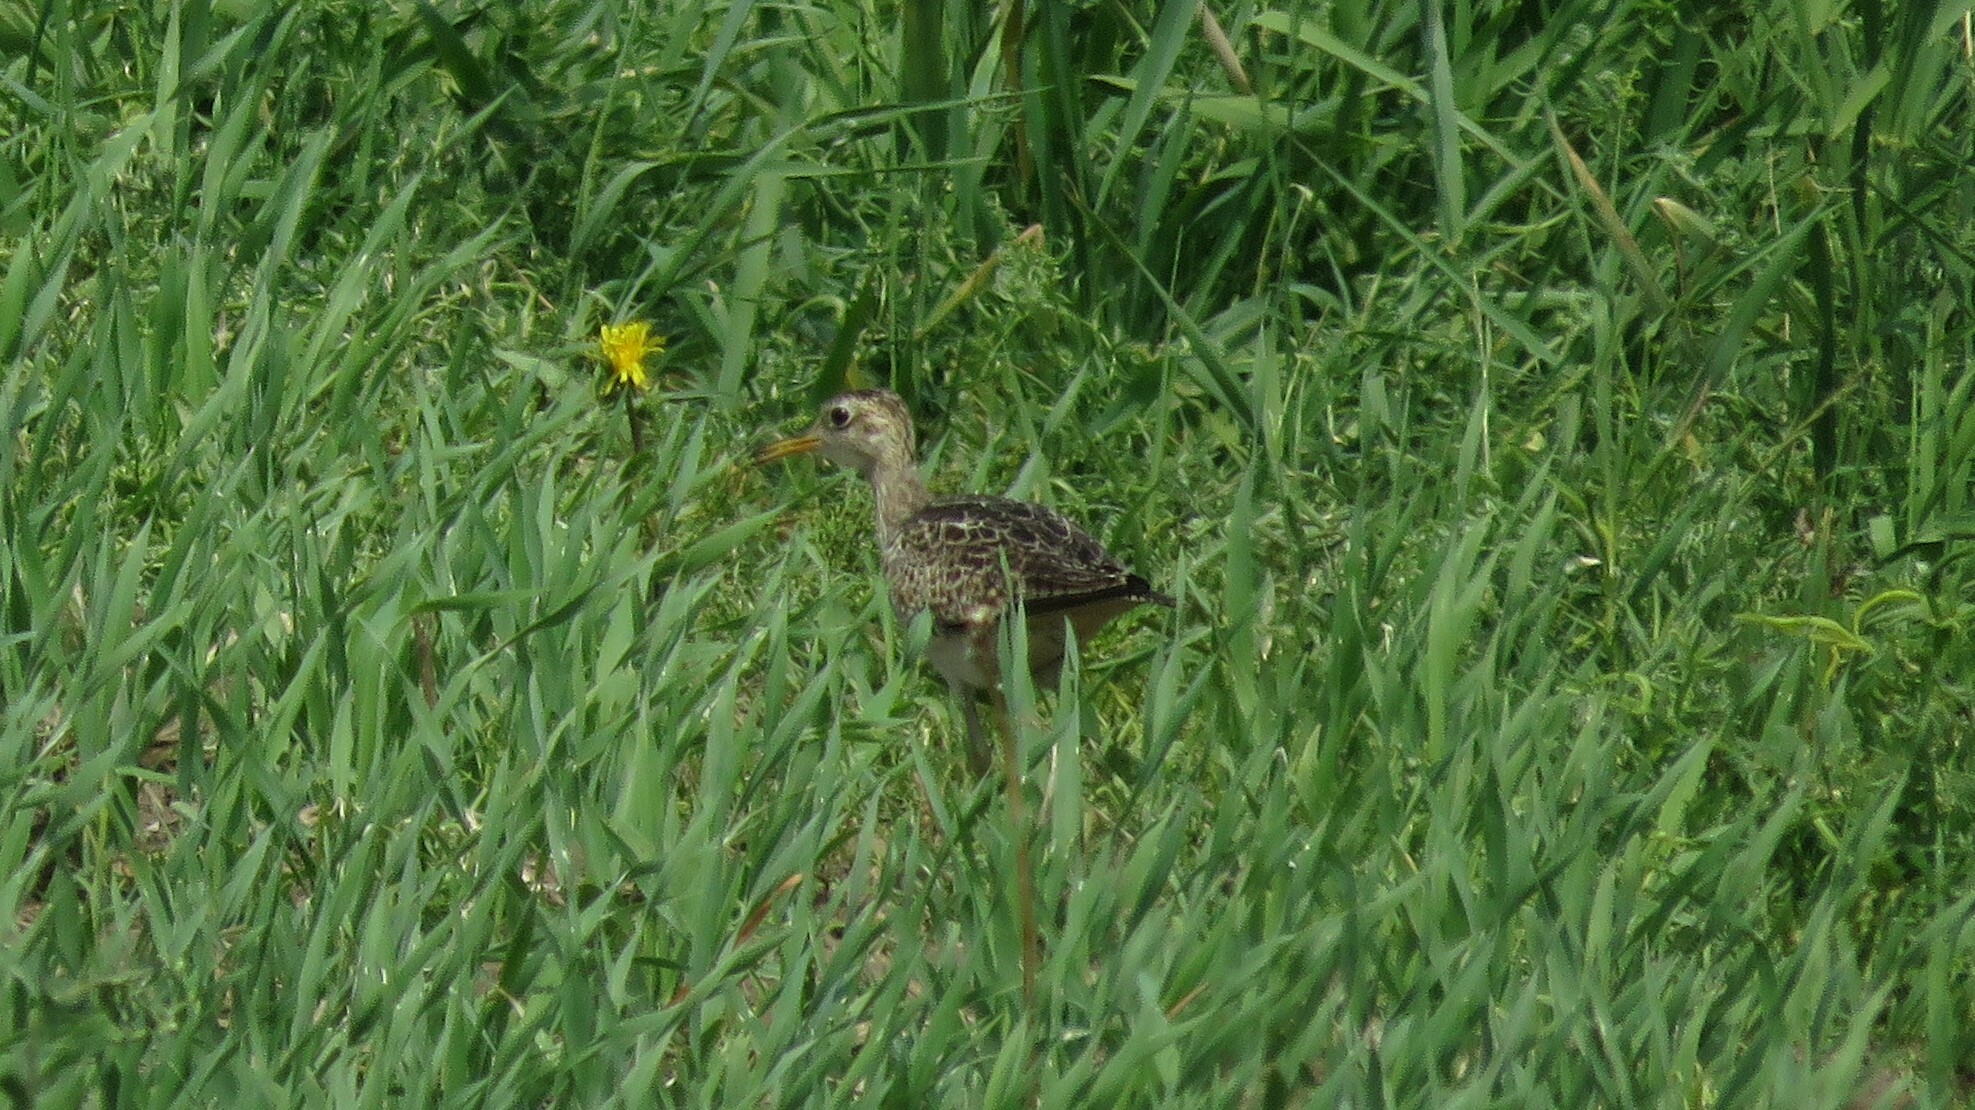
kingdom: Animalia
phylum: Chordata
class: Aves
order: Charadriiformes
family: Scolopacidae
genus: Bartramia
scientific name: Bartramia longicauda
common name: Upland sandpiper
